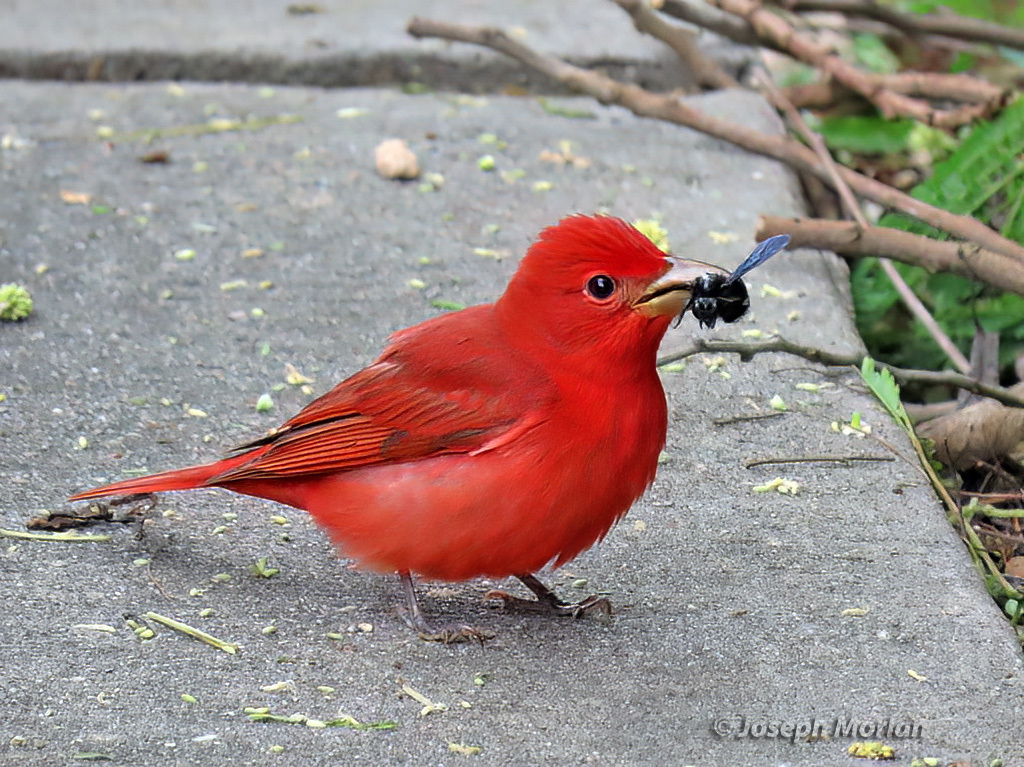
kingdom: Animalia
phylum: Chordata
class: Aves
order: Passeriformes
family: Cardinalidae
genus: Piranga
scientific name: Piranga rubra
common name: Summer tanager
